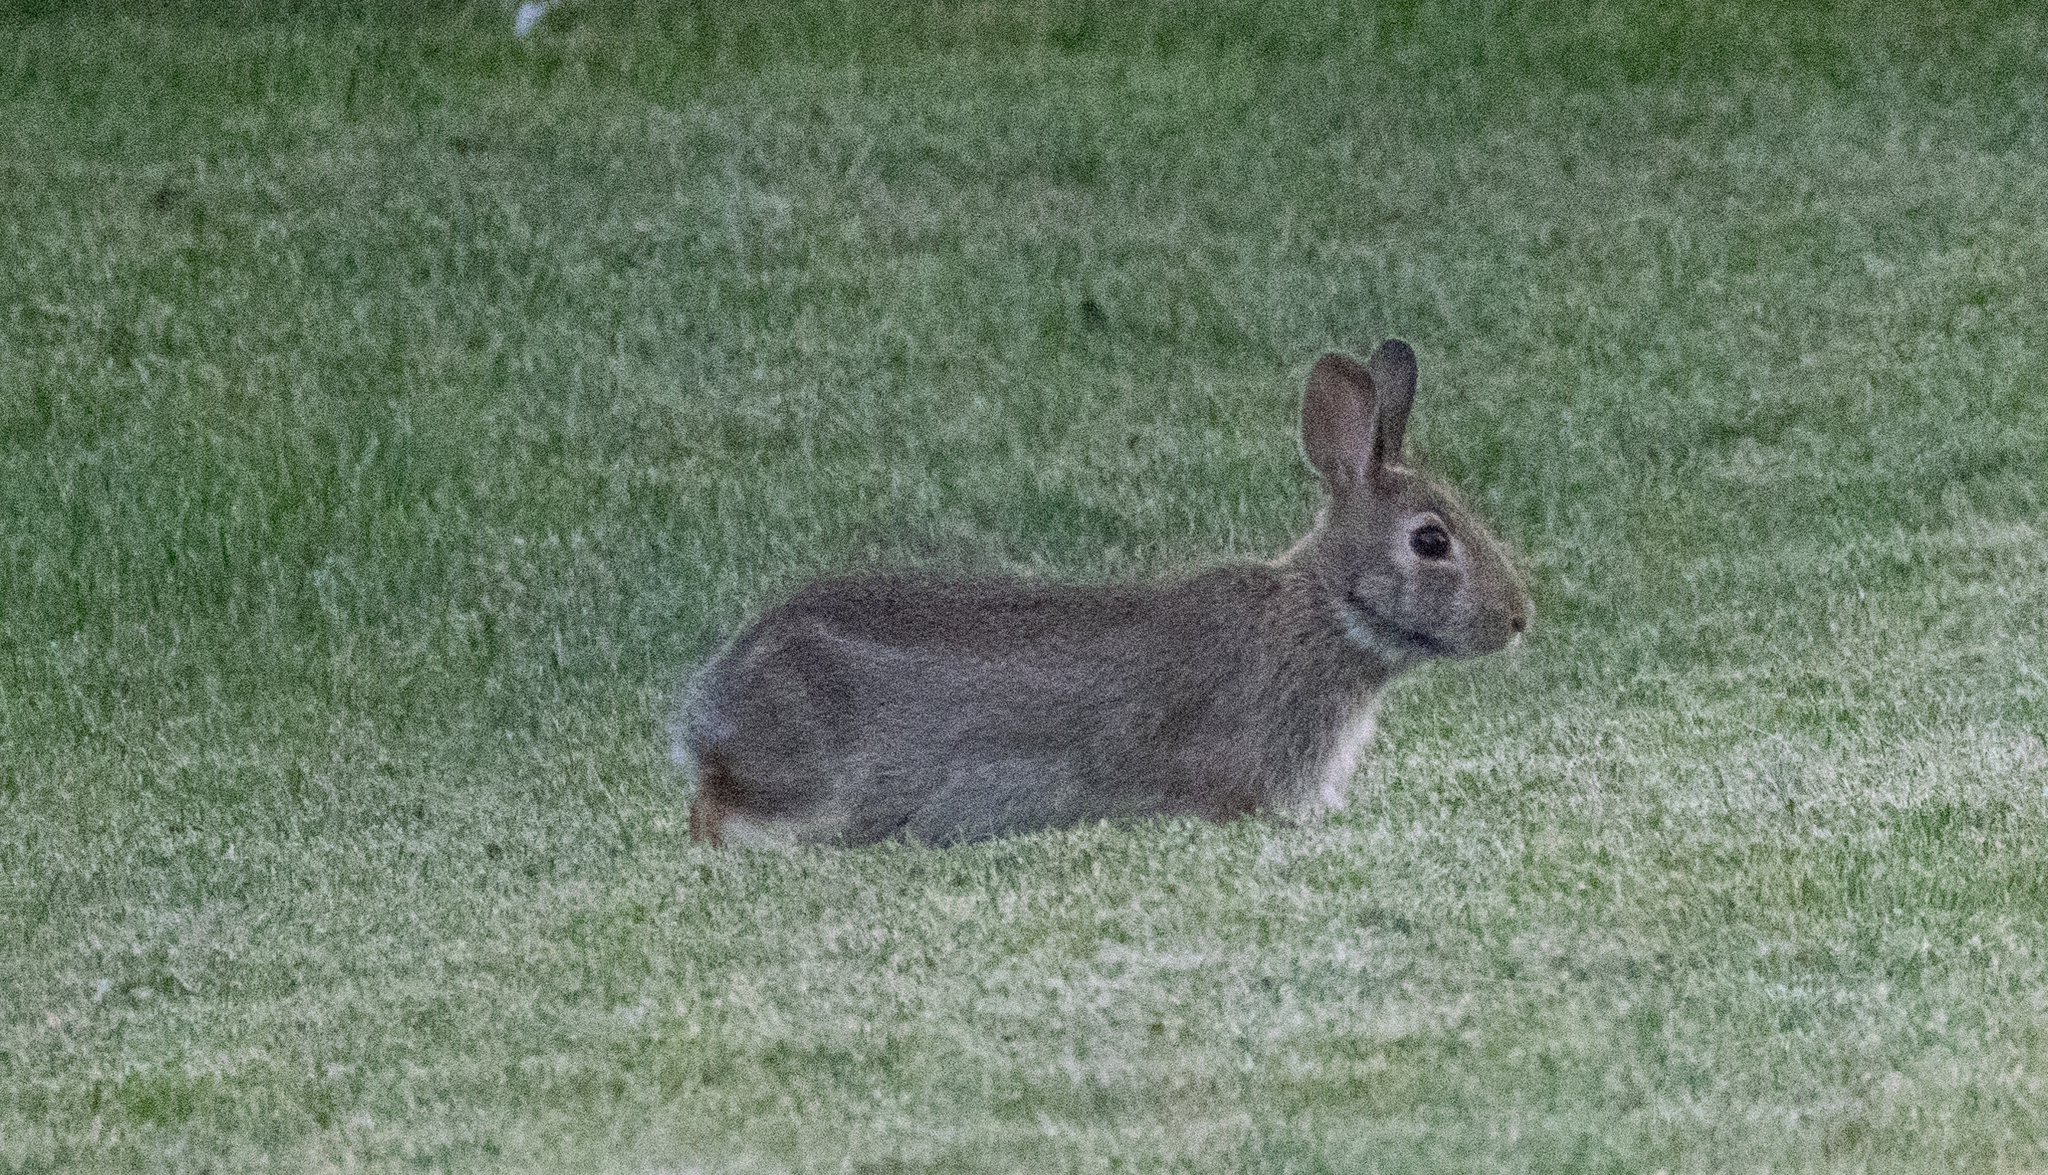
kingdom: Animalia
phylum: Chordata
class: Mammalia
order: Lagomorpha
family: Leporidae
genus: Sylvilagus
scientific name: Sylvilagus floridanus
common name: Eastern cottontail
